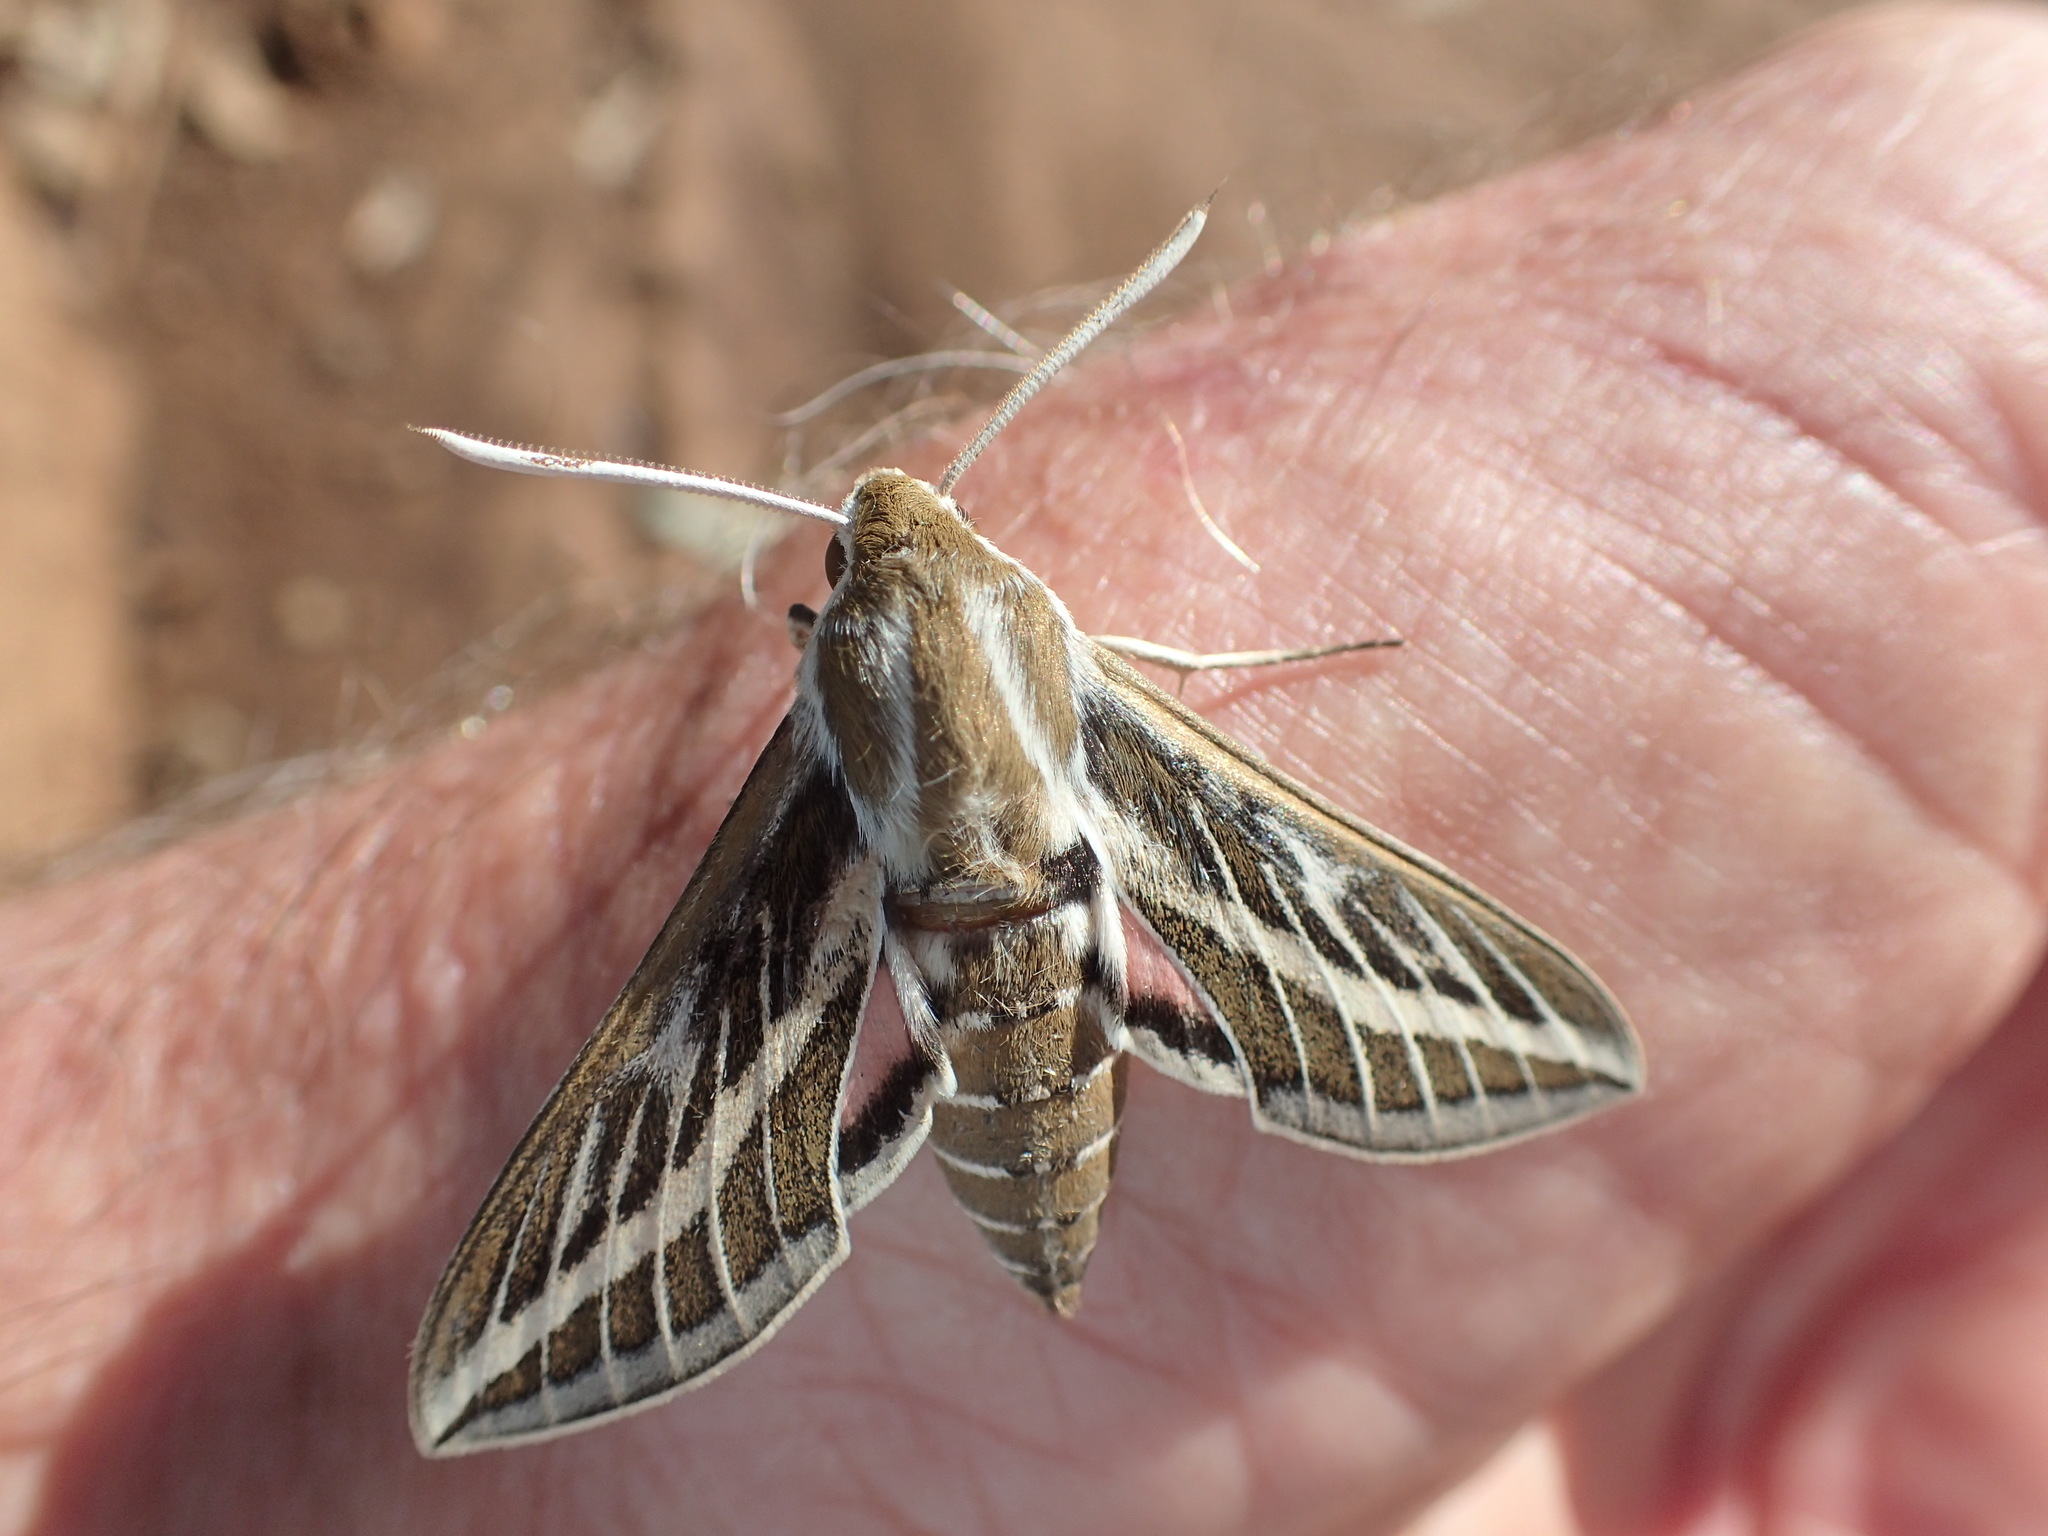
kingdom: Animalia
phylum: Arthropoda
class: Insecta
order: Lepidoptera
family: Sphingidae
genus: Hyles
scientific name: Hyles livornicoides
